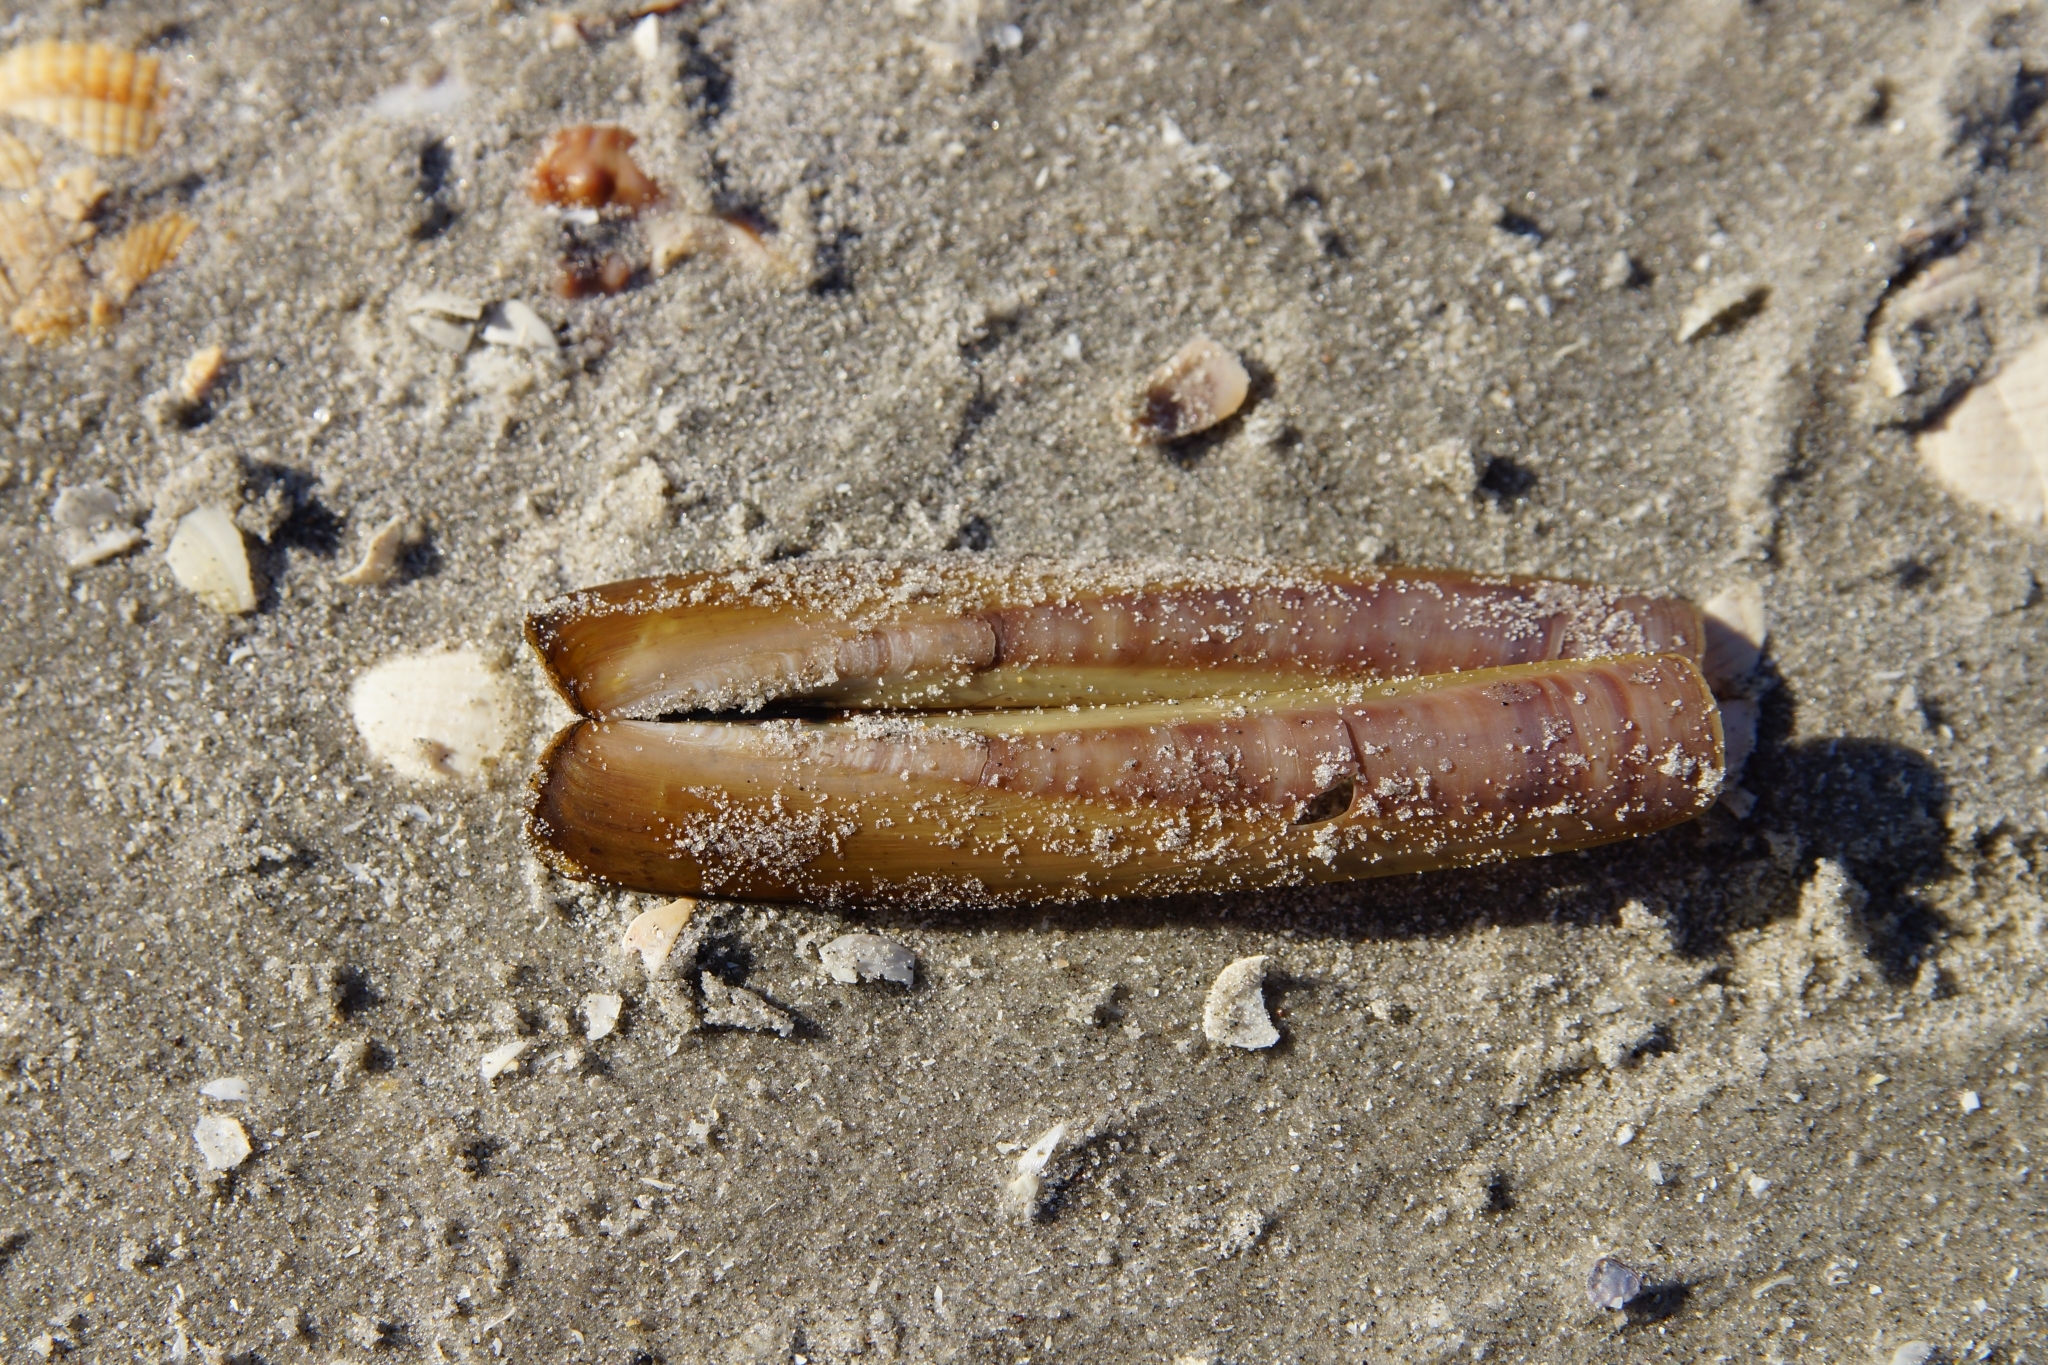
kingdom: Animalia
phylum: Mollusca
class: Bivalvia
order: Adapedonta
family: Pharidae
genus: Ensis
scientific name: Ensis leei
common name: American jack knife clam
